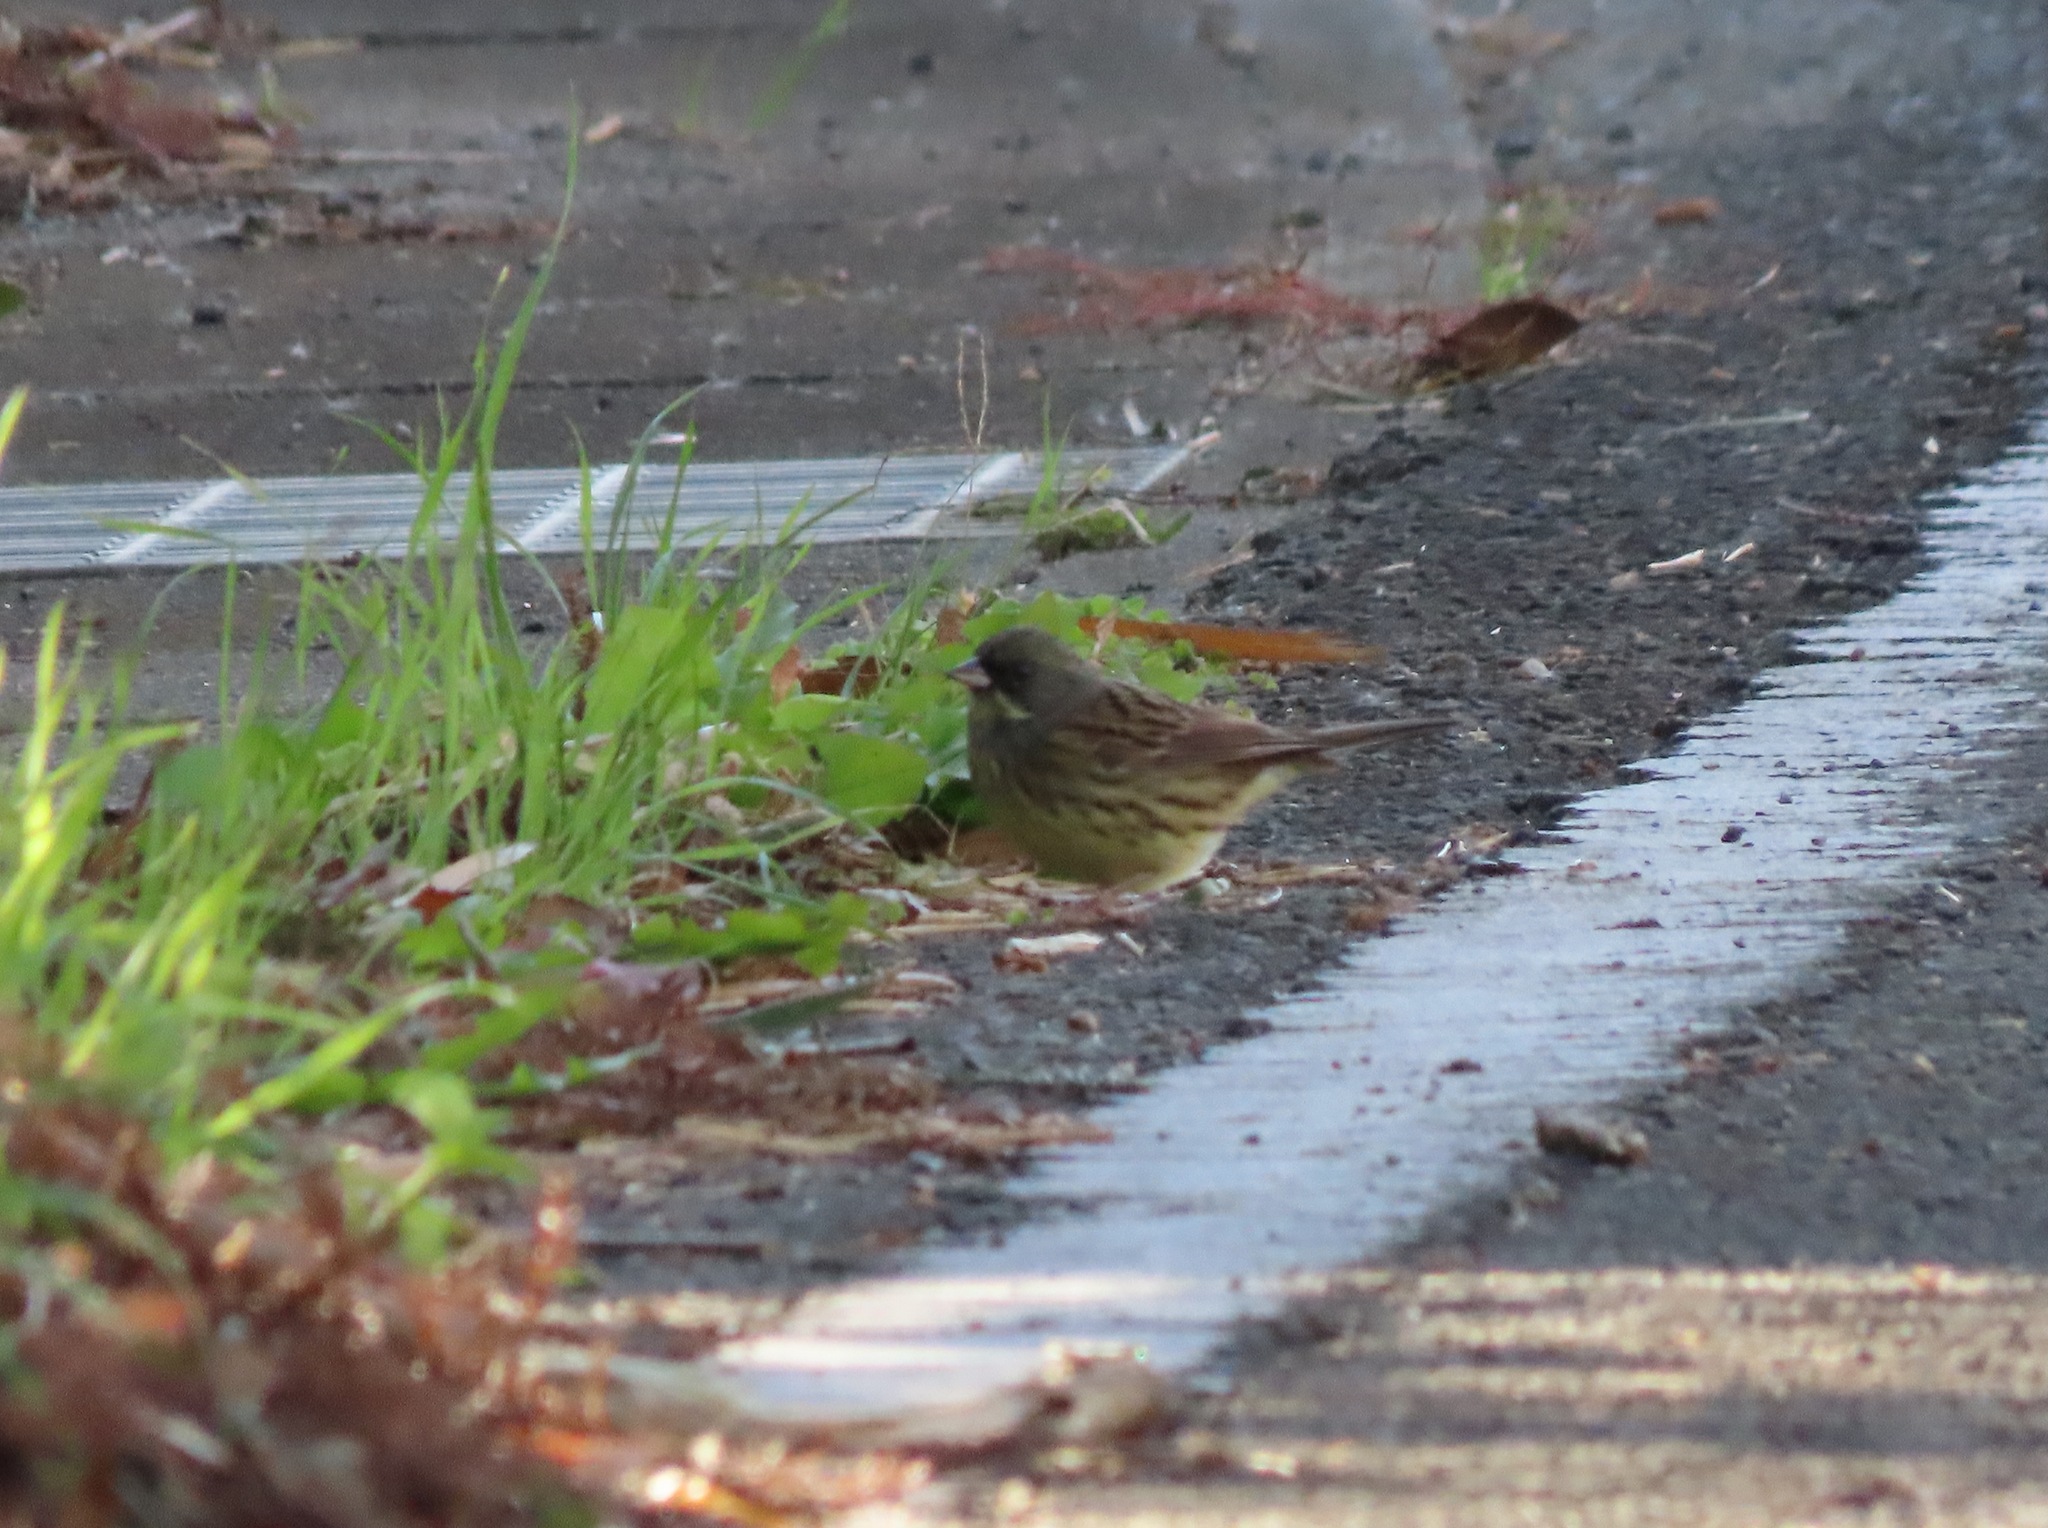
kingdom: Animalia
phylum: Chordata
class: Aves
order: Passeriformes
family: Emberizidae
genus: Emberiza
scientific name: Emberiza personata
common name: Masked bunting
